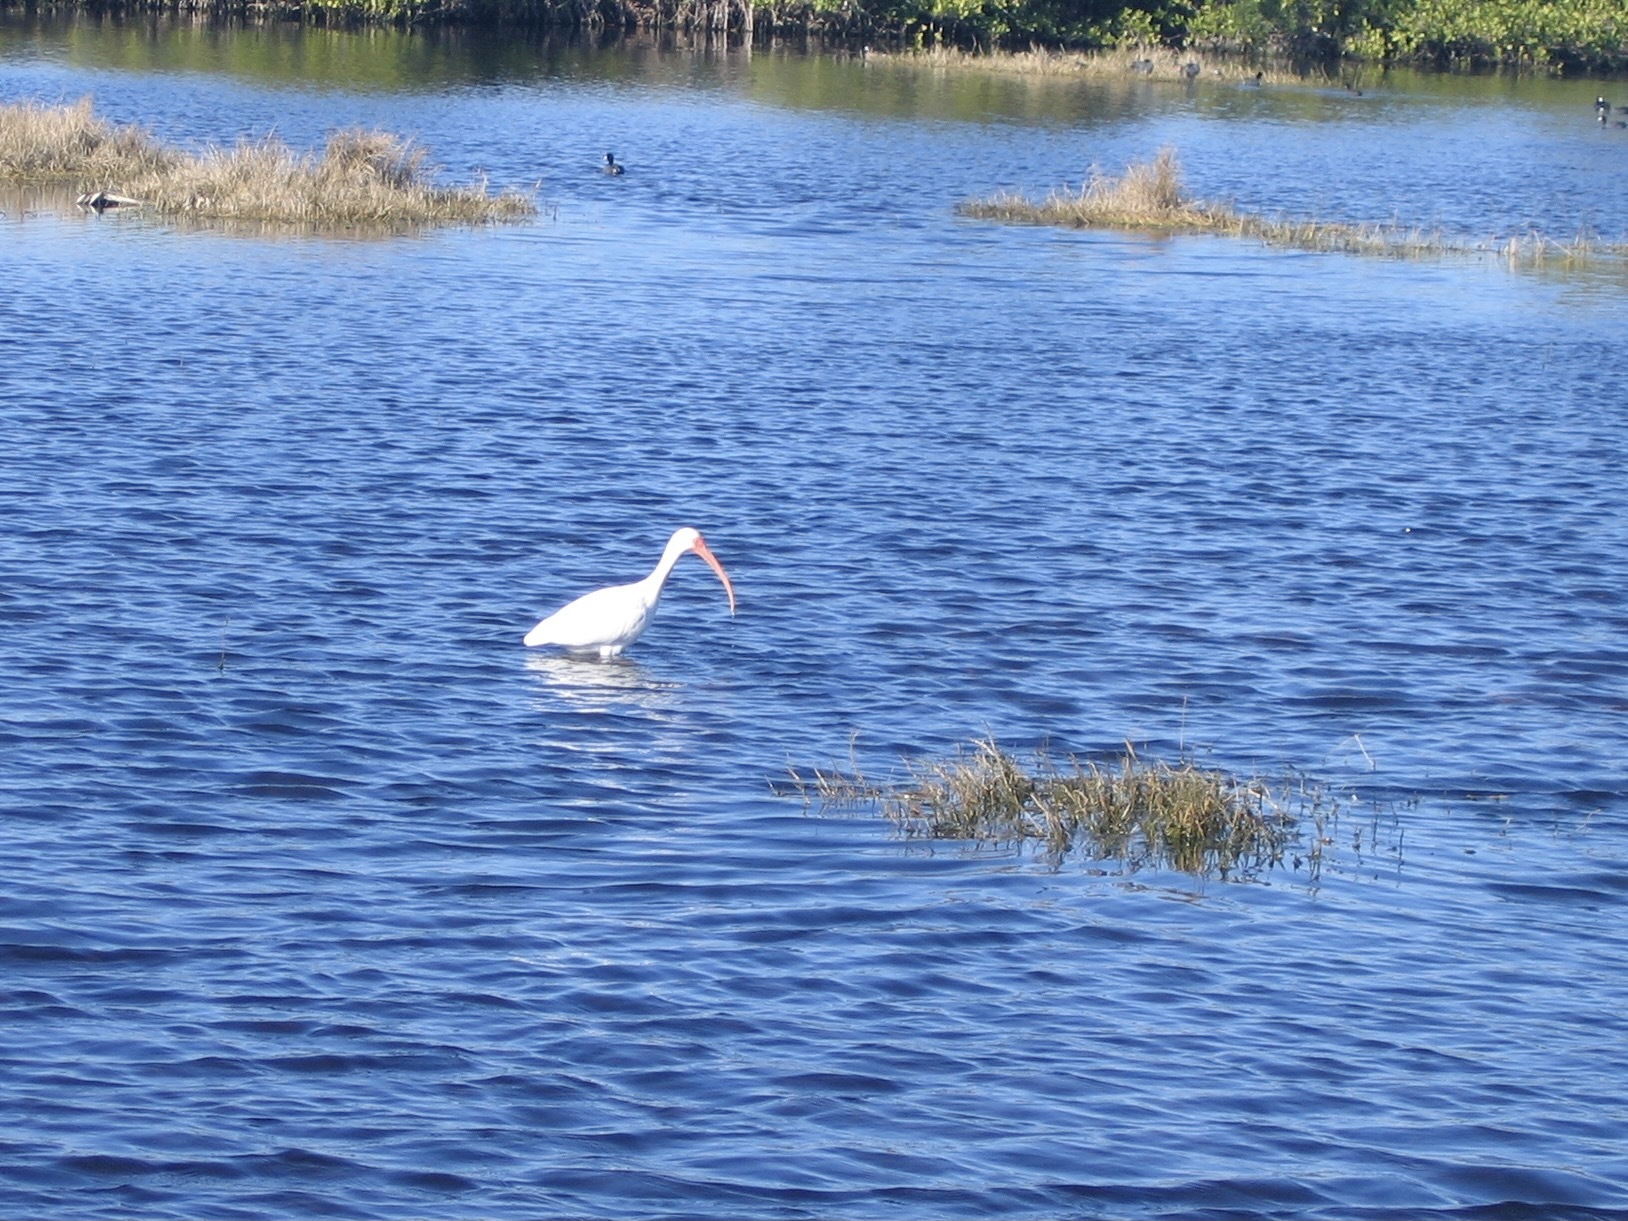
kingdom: Animalia
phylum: Chordata
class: Aves
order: Pelecaniformes
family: Threskiornithidae
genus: Eudocimus
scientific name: Eudocimus albus
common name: White ibis
